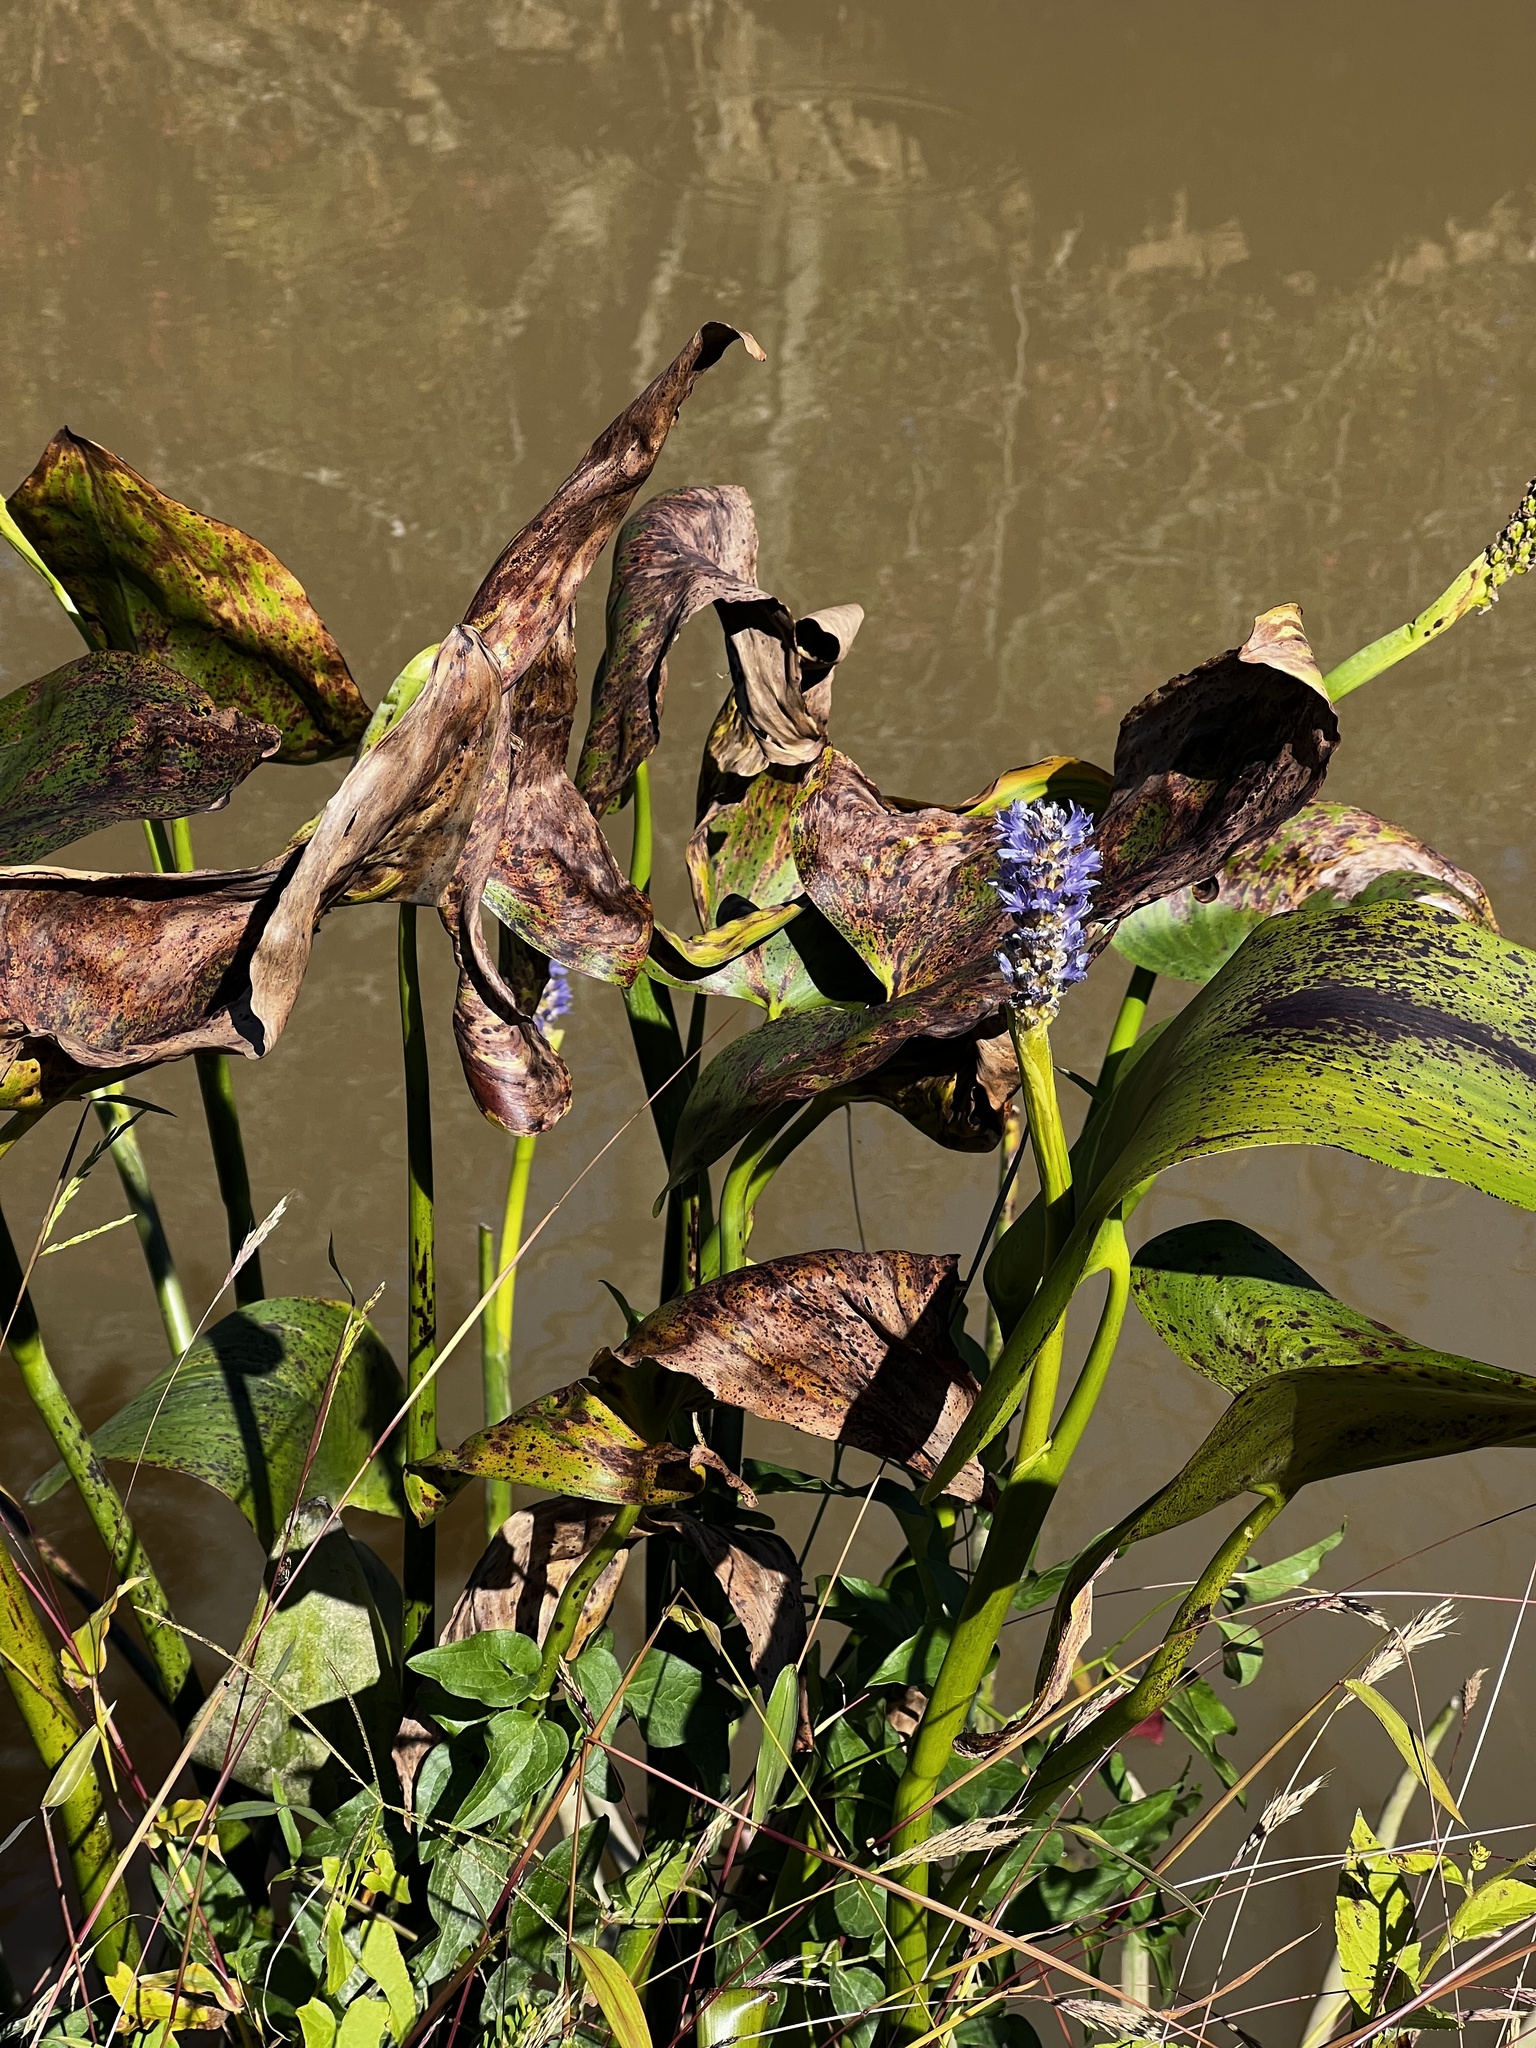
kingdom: Plantae
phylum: Tracheophyta
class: Liliopsida
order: Commelinales
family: Pontederiaceae
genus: Pontederia
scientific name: Pontederia cordata
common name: Pickerelweed
